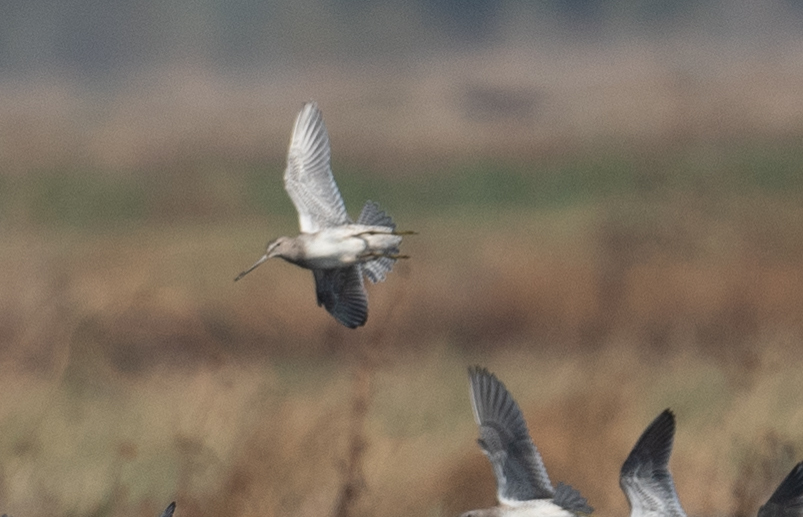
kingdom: Animalia
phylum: Chordata
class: Aves
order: Charadriiformes
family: Scolopacidae
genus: Limnodromus
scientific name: Limnodromus scolopaceus
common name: Long-billed dowitcher
